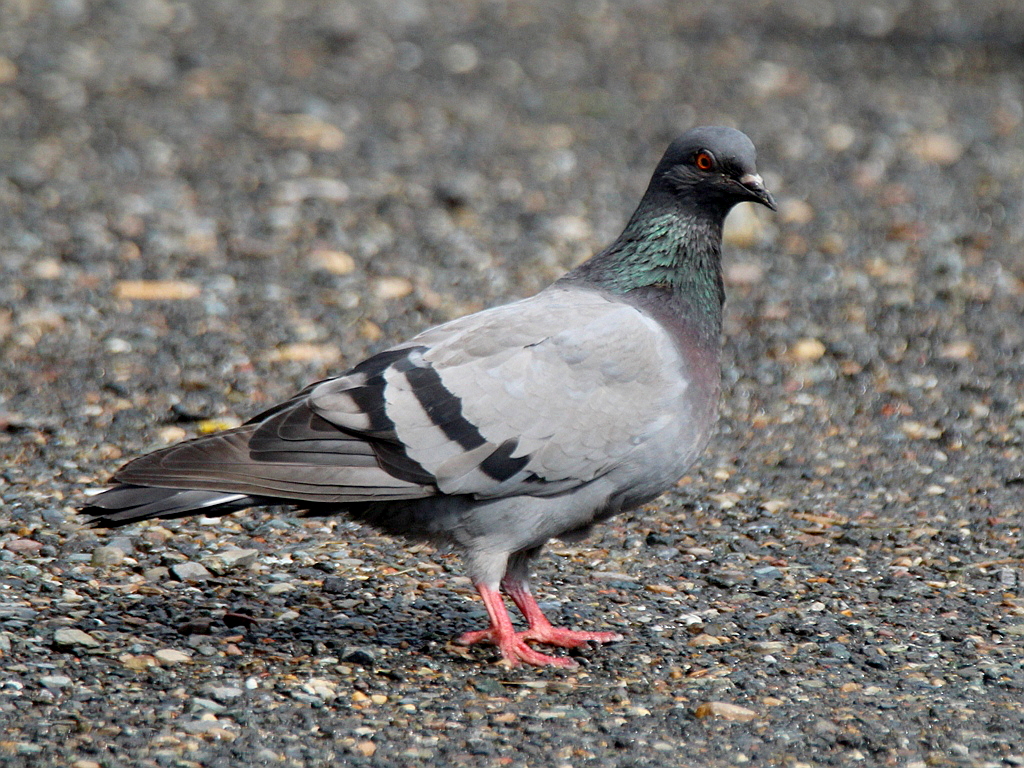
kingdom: Animalia
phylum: Chordata
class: Aves
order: Columbiformes
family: Columbidae
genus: Columba
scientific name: Columba livia
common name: Rock pigeon
